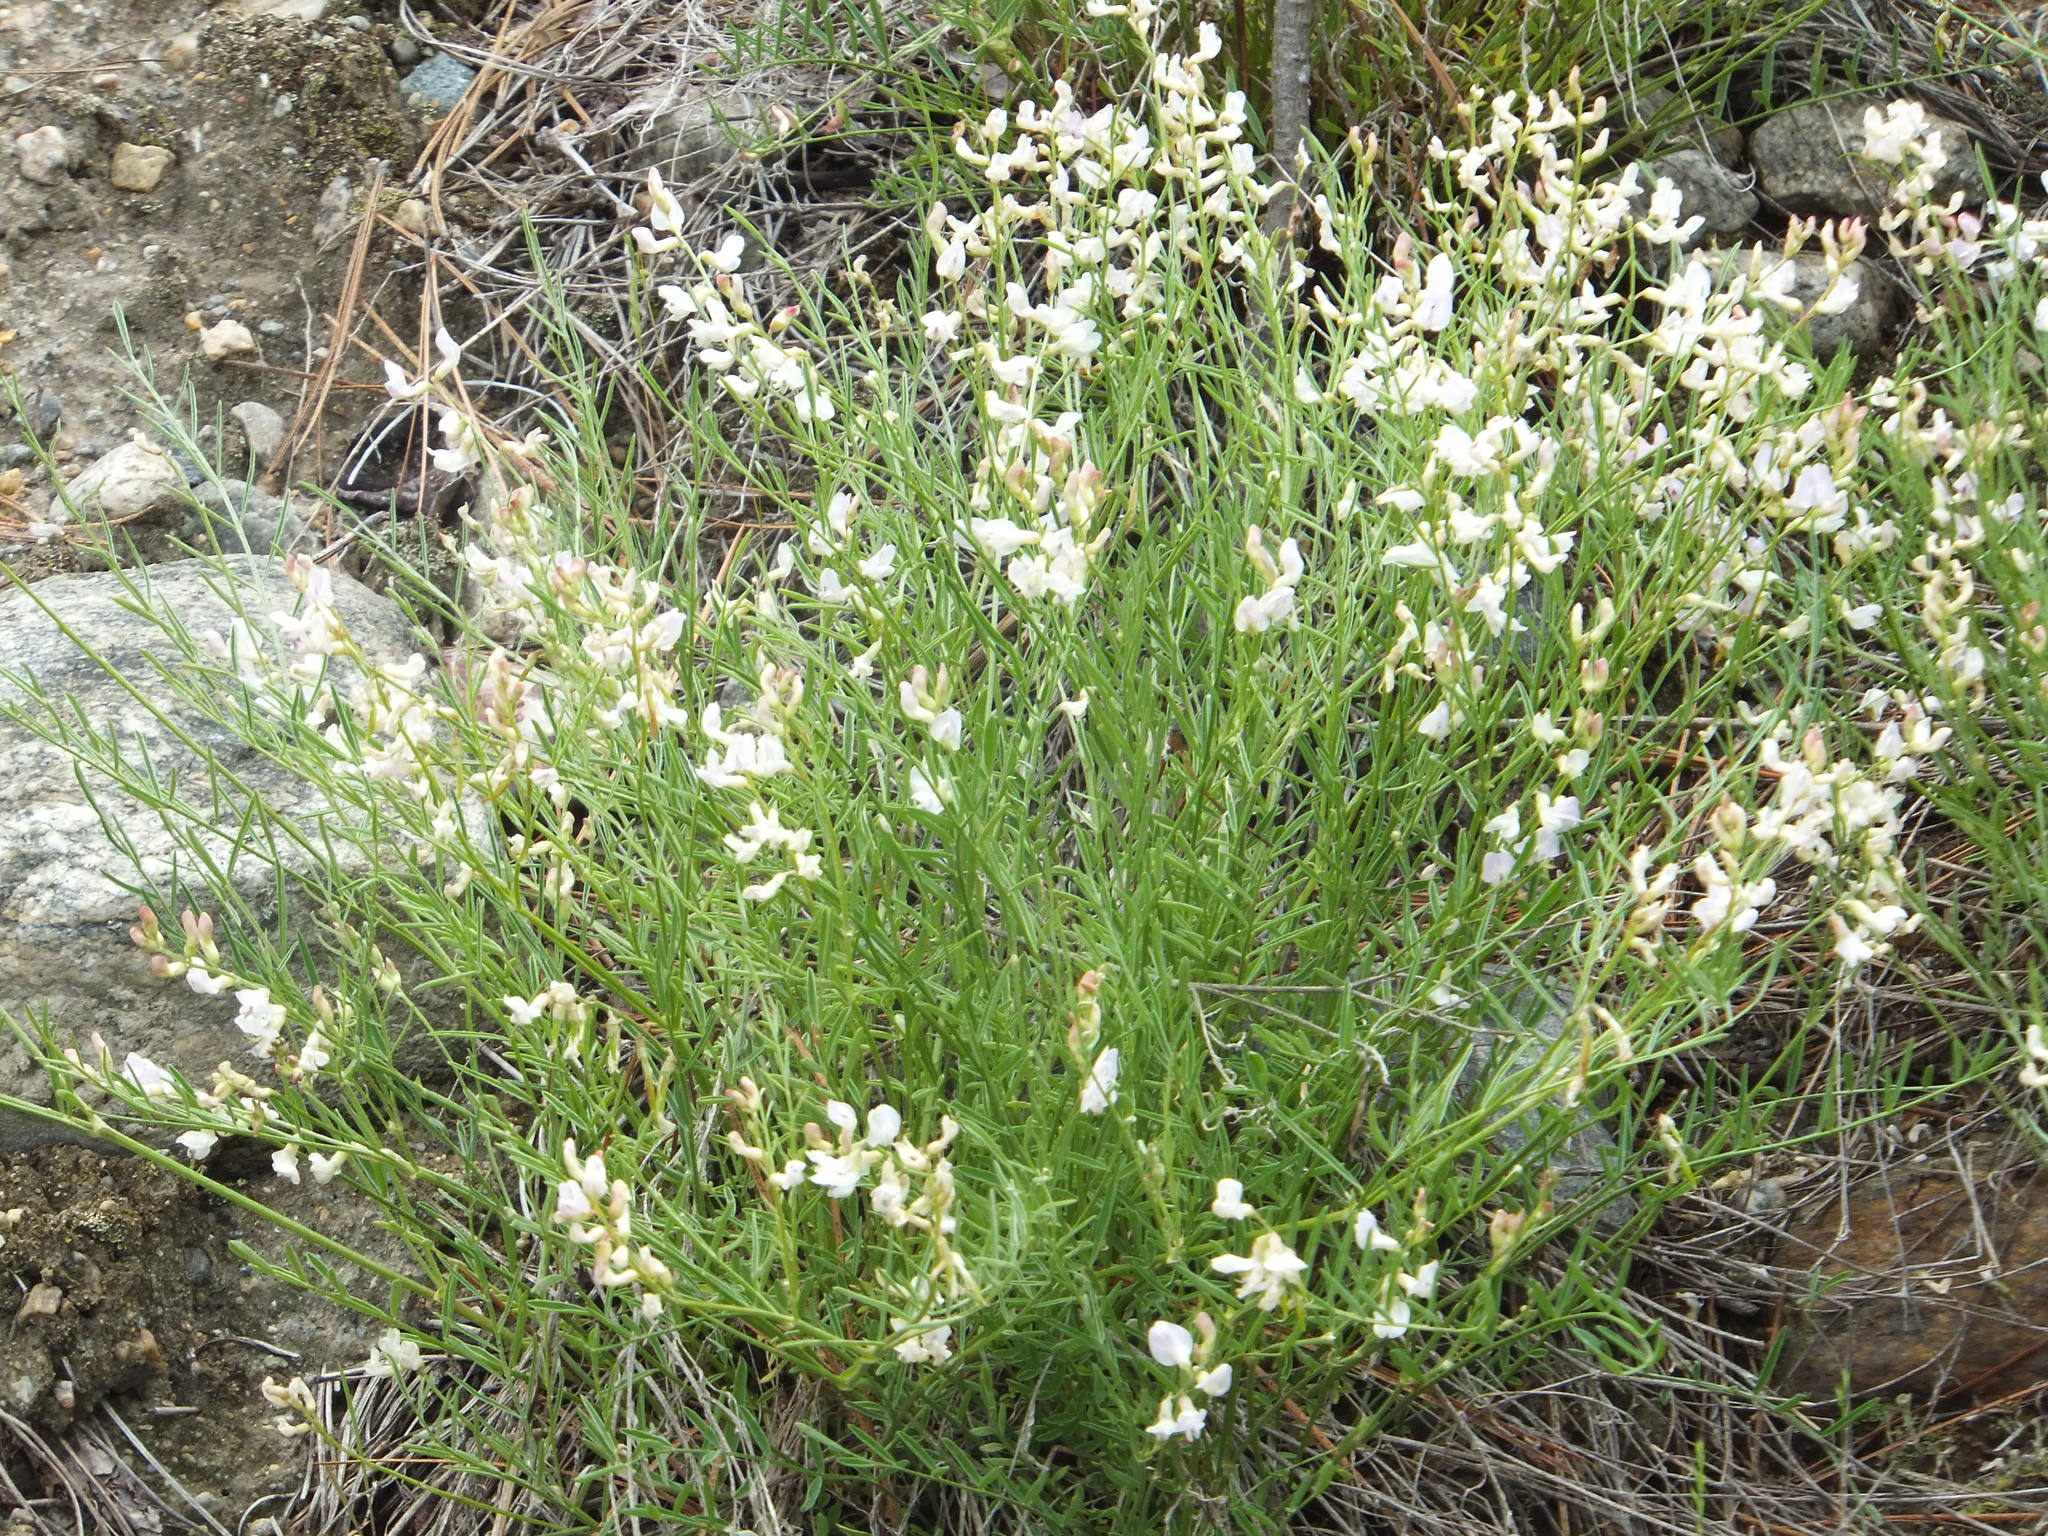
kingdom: Plantae
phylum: Tracheophyta
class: Magnoliopsida
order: Fabales
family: Fabaceae
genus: Astragalus
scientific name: Astragalus miser
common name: Timber milkvetch
